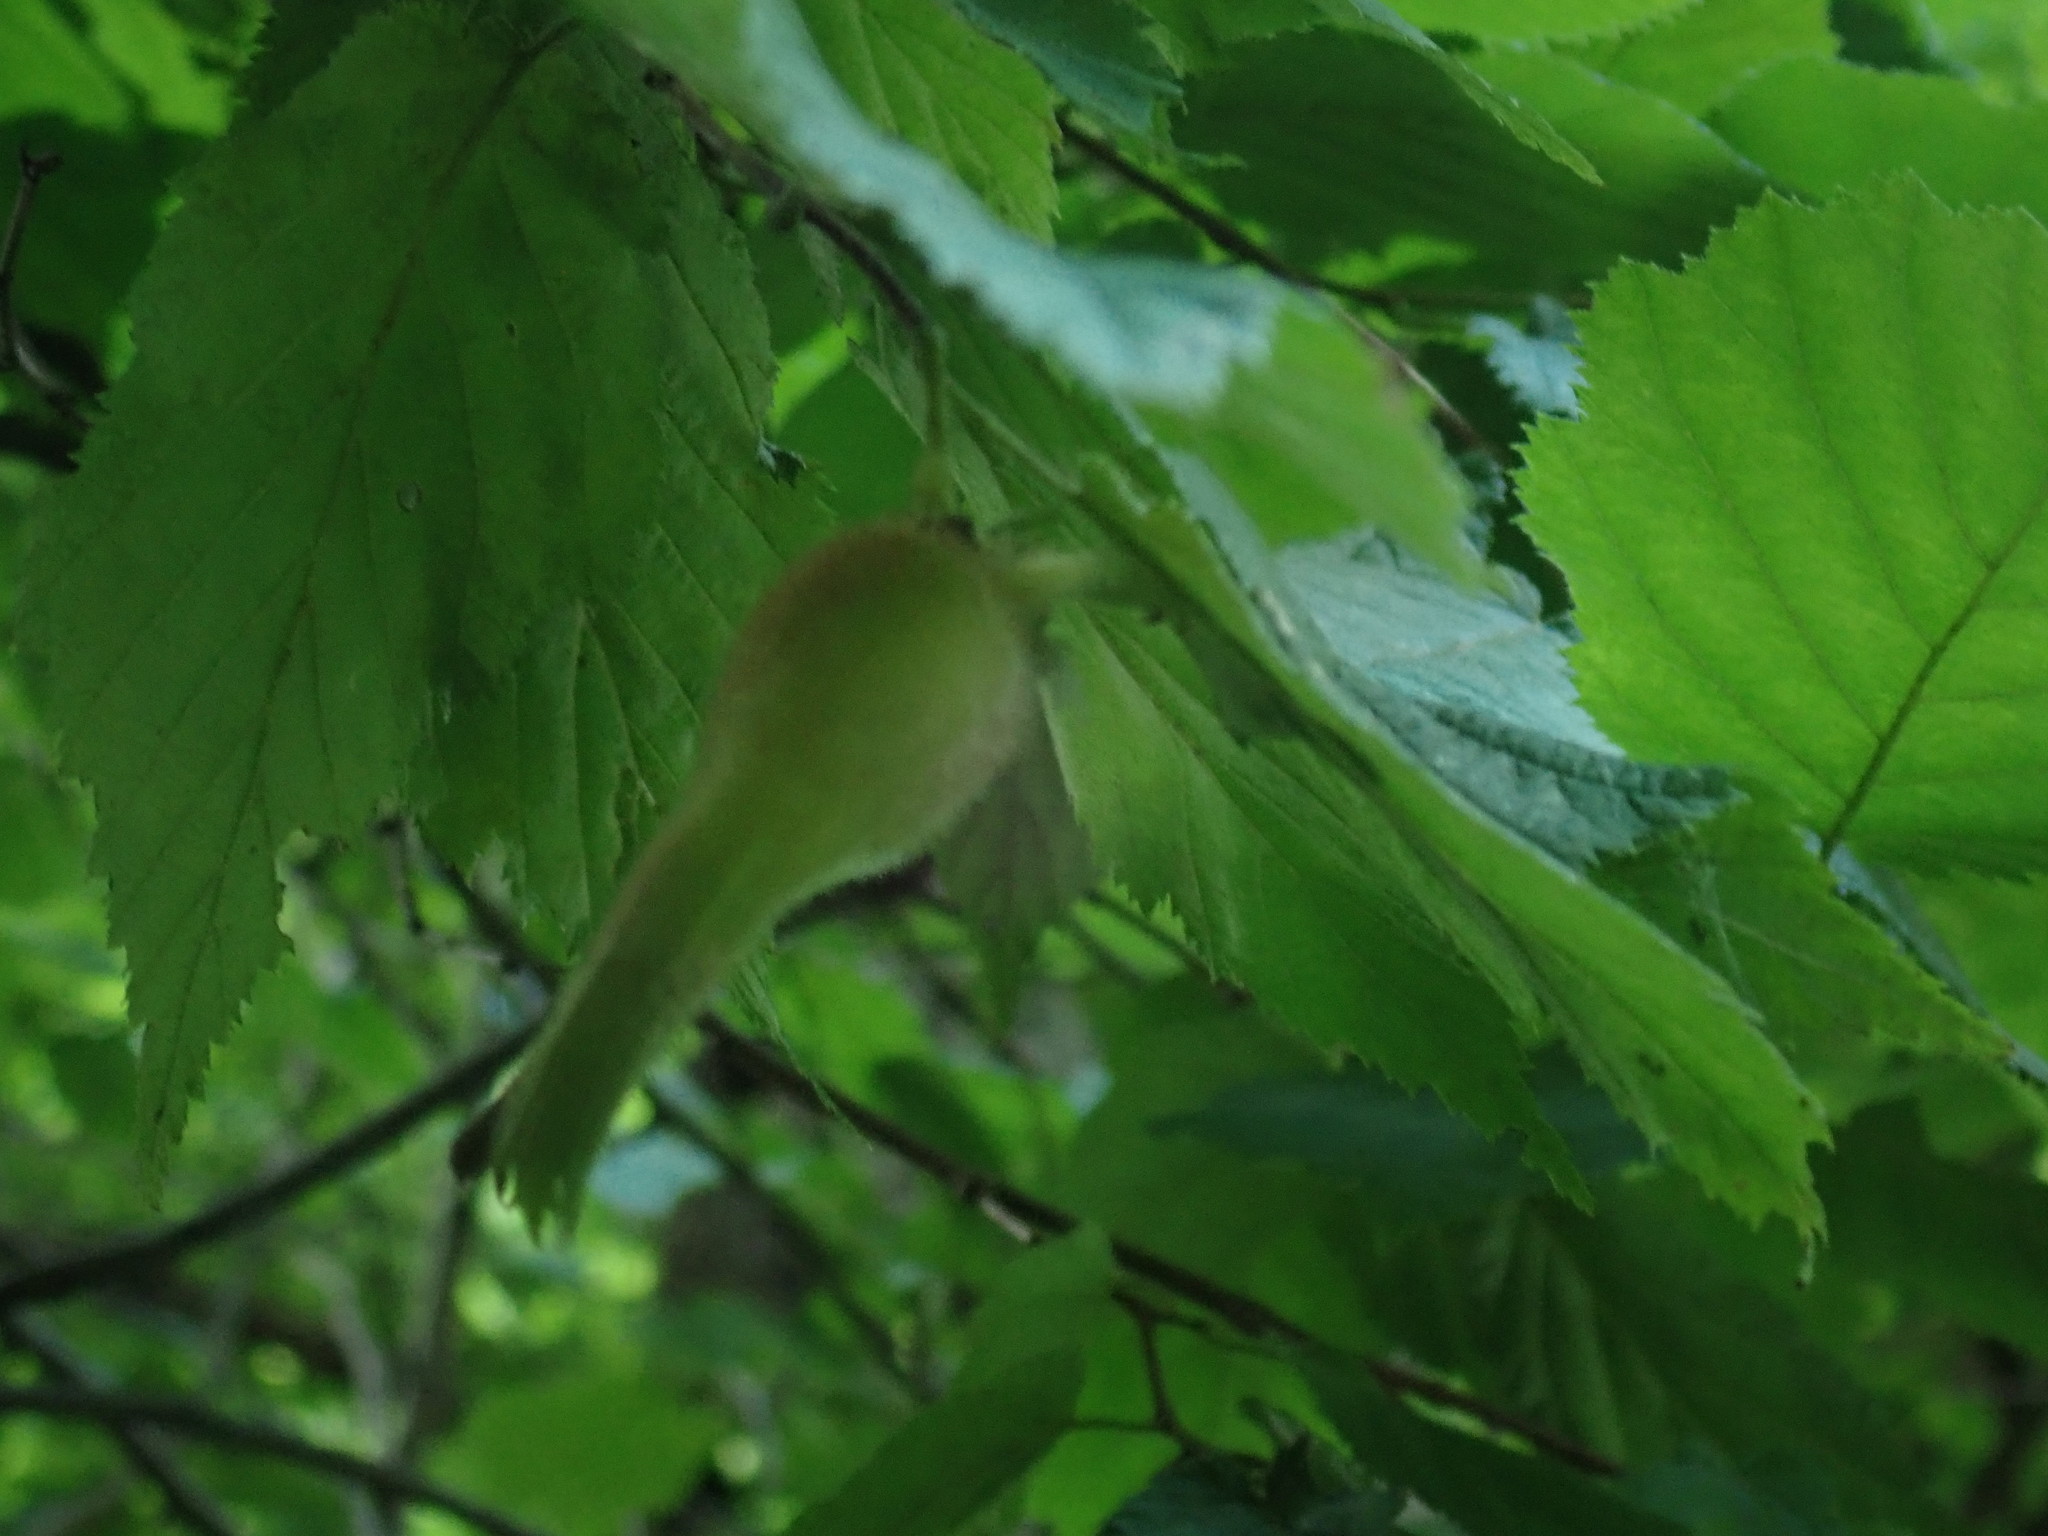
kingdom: Plantae
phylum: Tracheophyta
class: Magnoliopsida
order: Fagales
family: Betulaceae
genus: Corylus
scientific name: Corylus cornuta
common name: Beaked hazel
